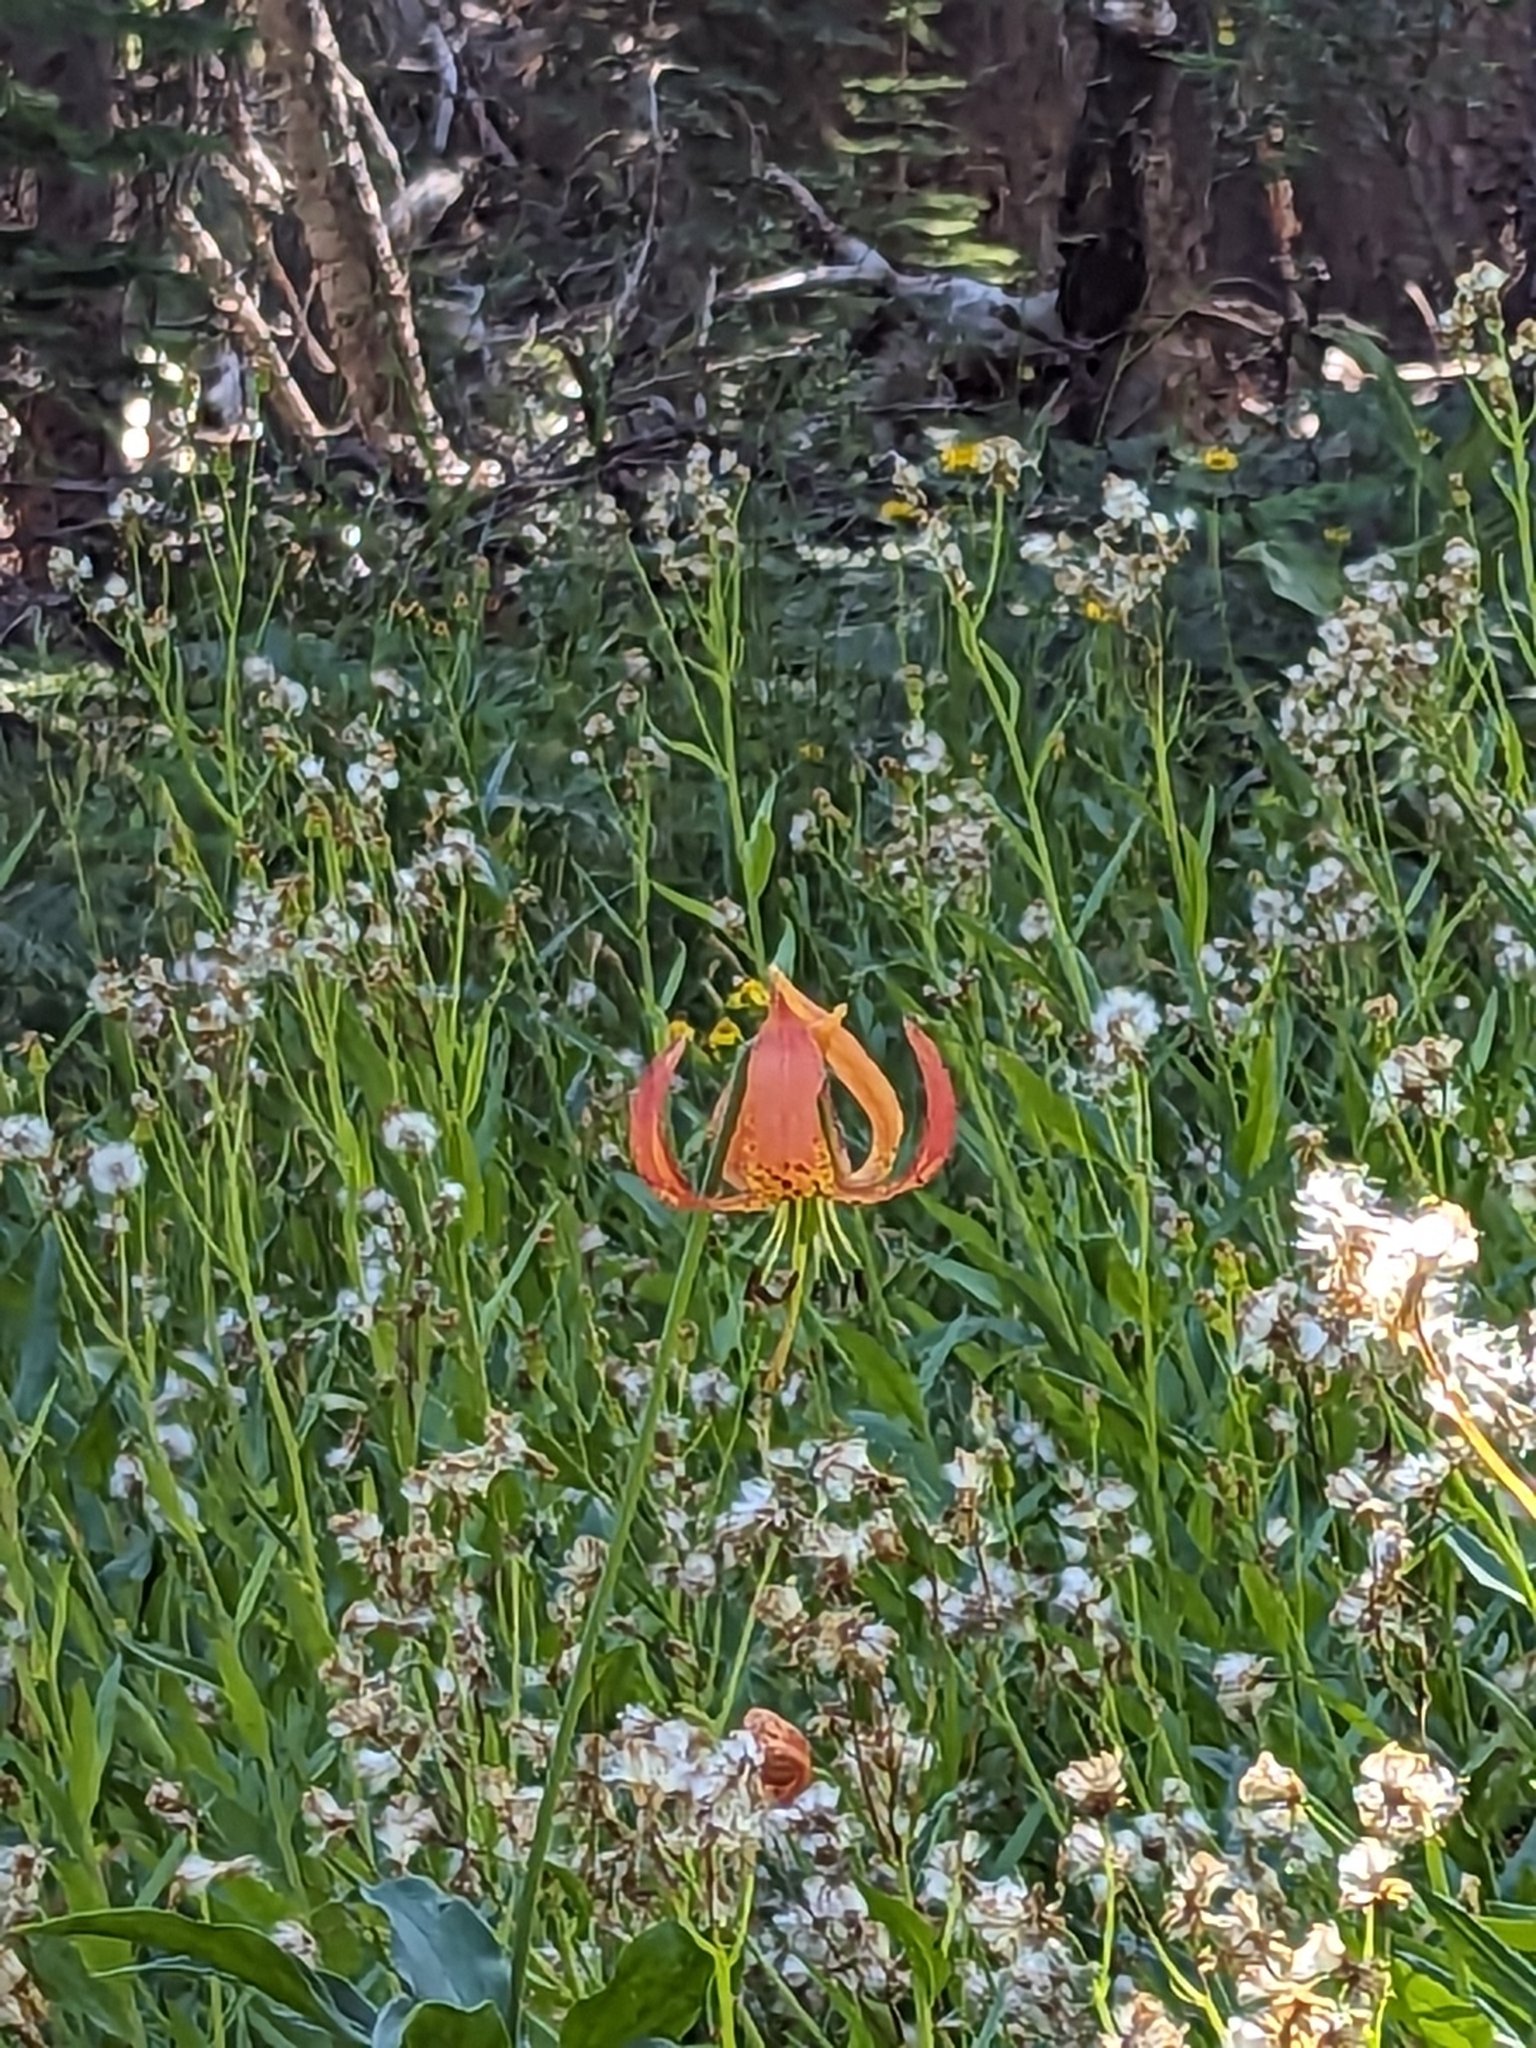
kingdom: Plantae
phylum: Tracheophyta
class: Liliopsida
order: Liliales
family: Liliaceae
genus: Lilium
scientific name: Lilium pardalinum
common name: Panther lily
